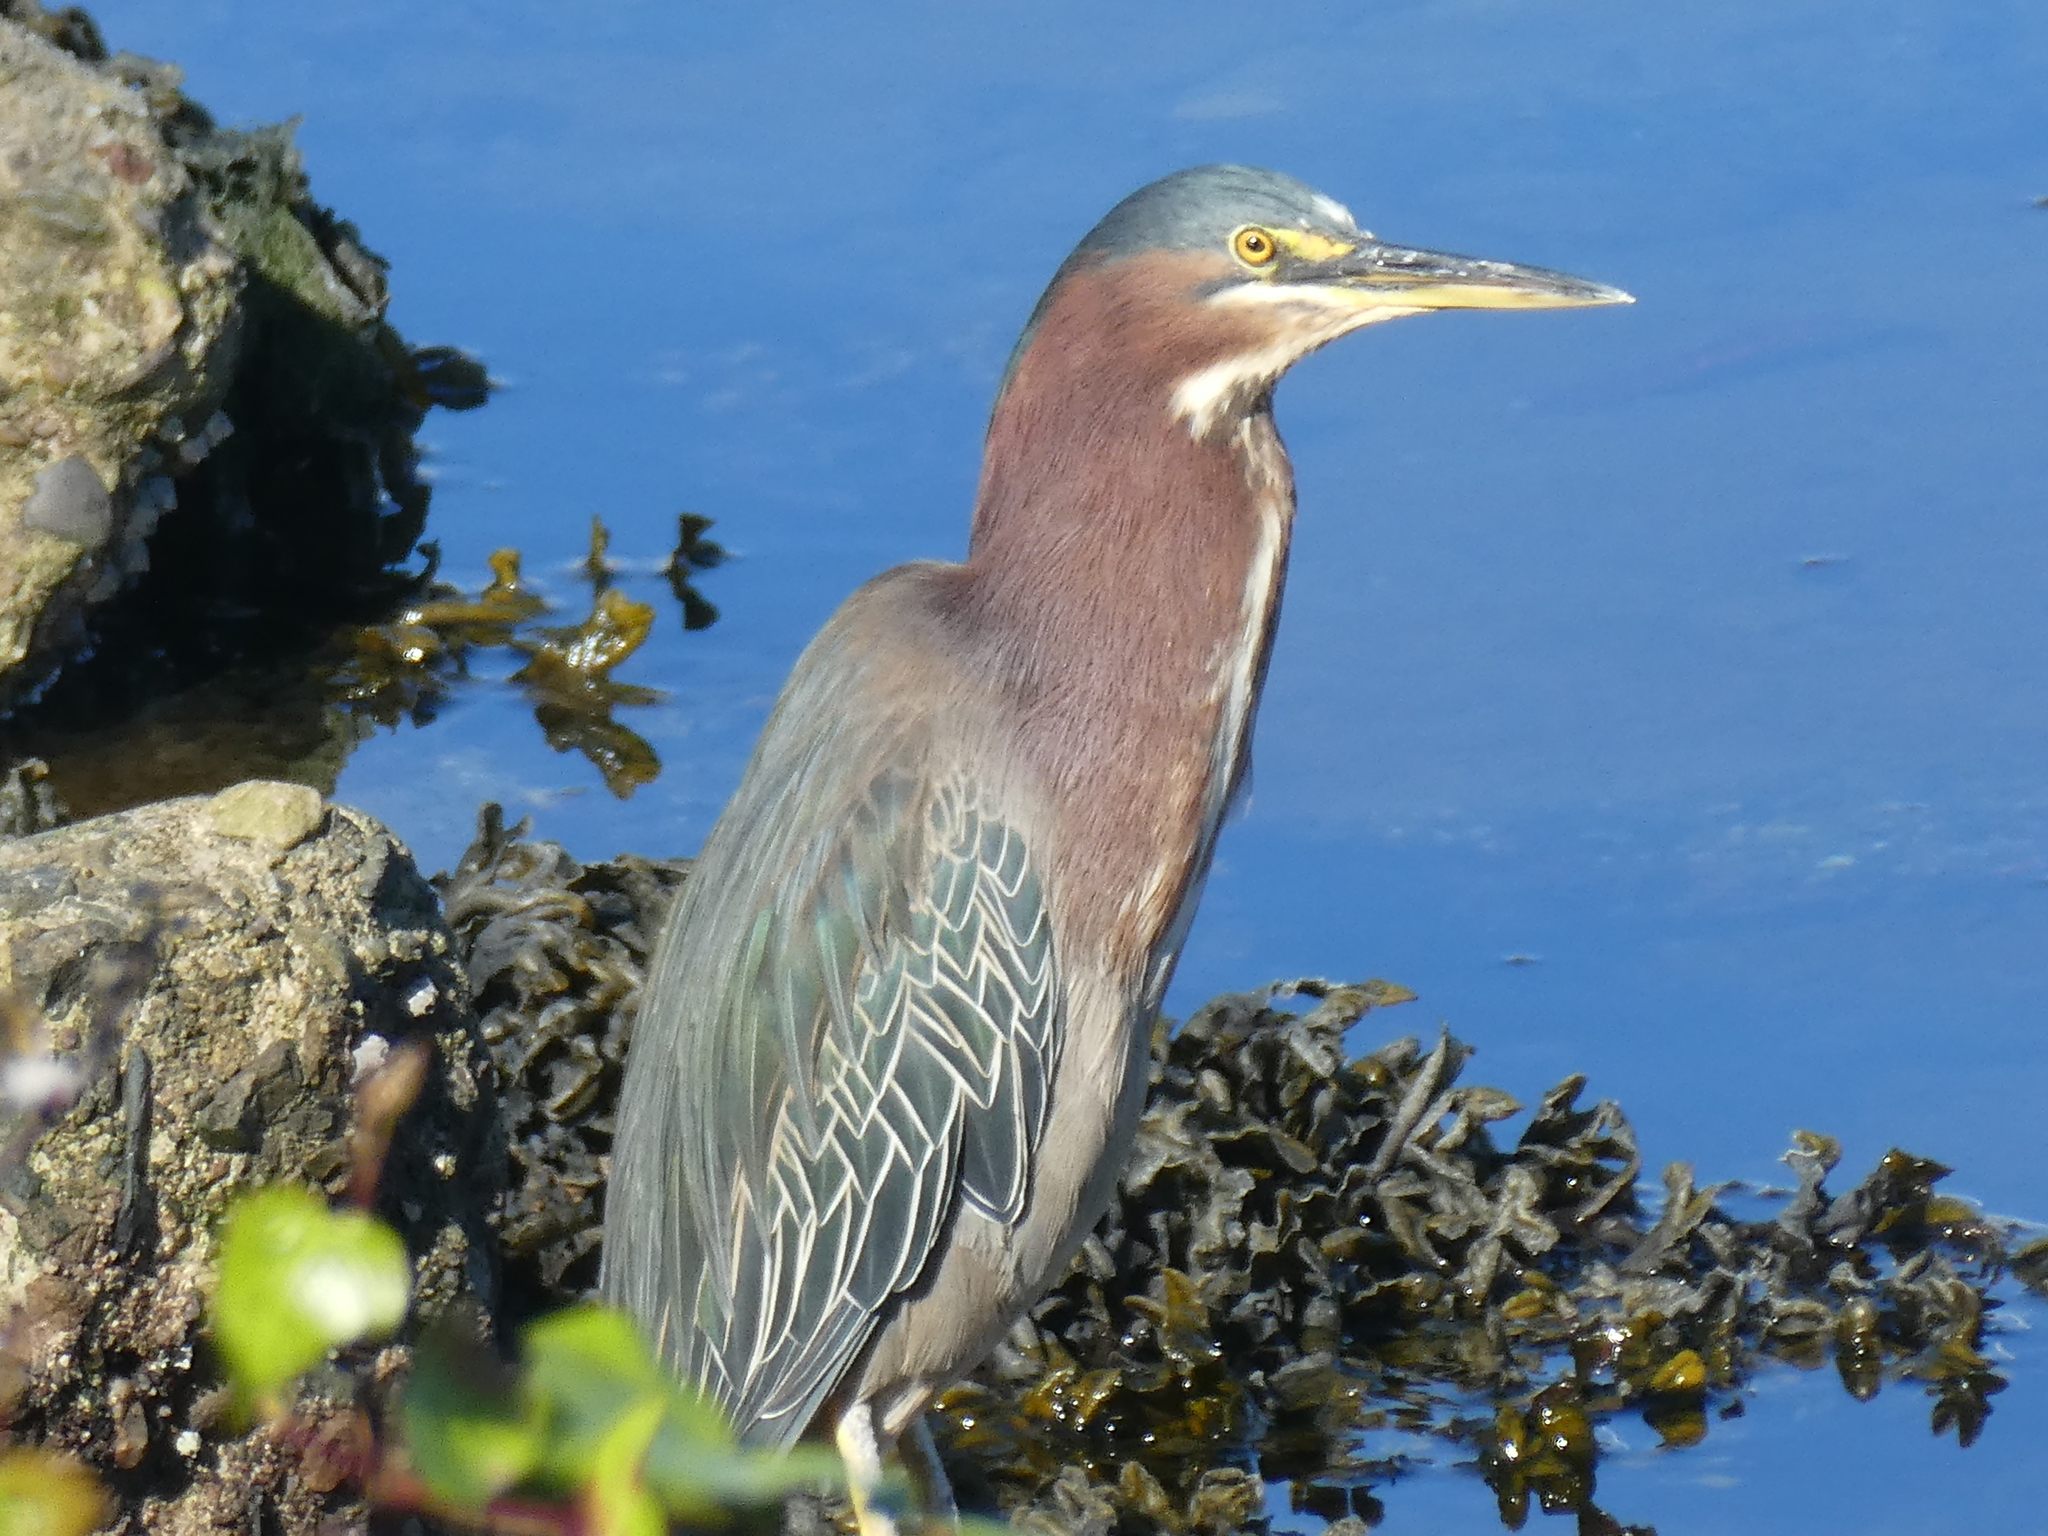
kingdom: Animalia
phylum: Chordata
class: Aves
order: Pelecaniformes
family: Ardeidae
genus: Butorides
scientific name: Butorides virescens
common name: Green heron
